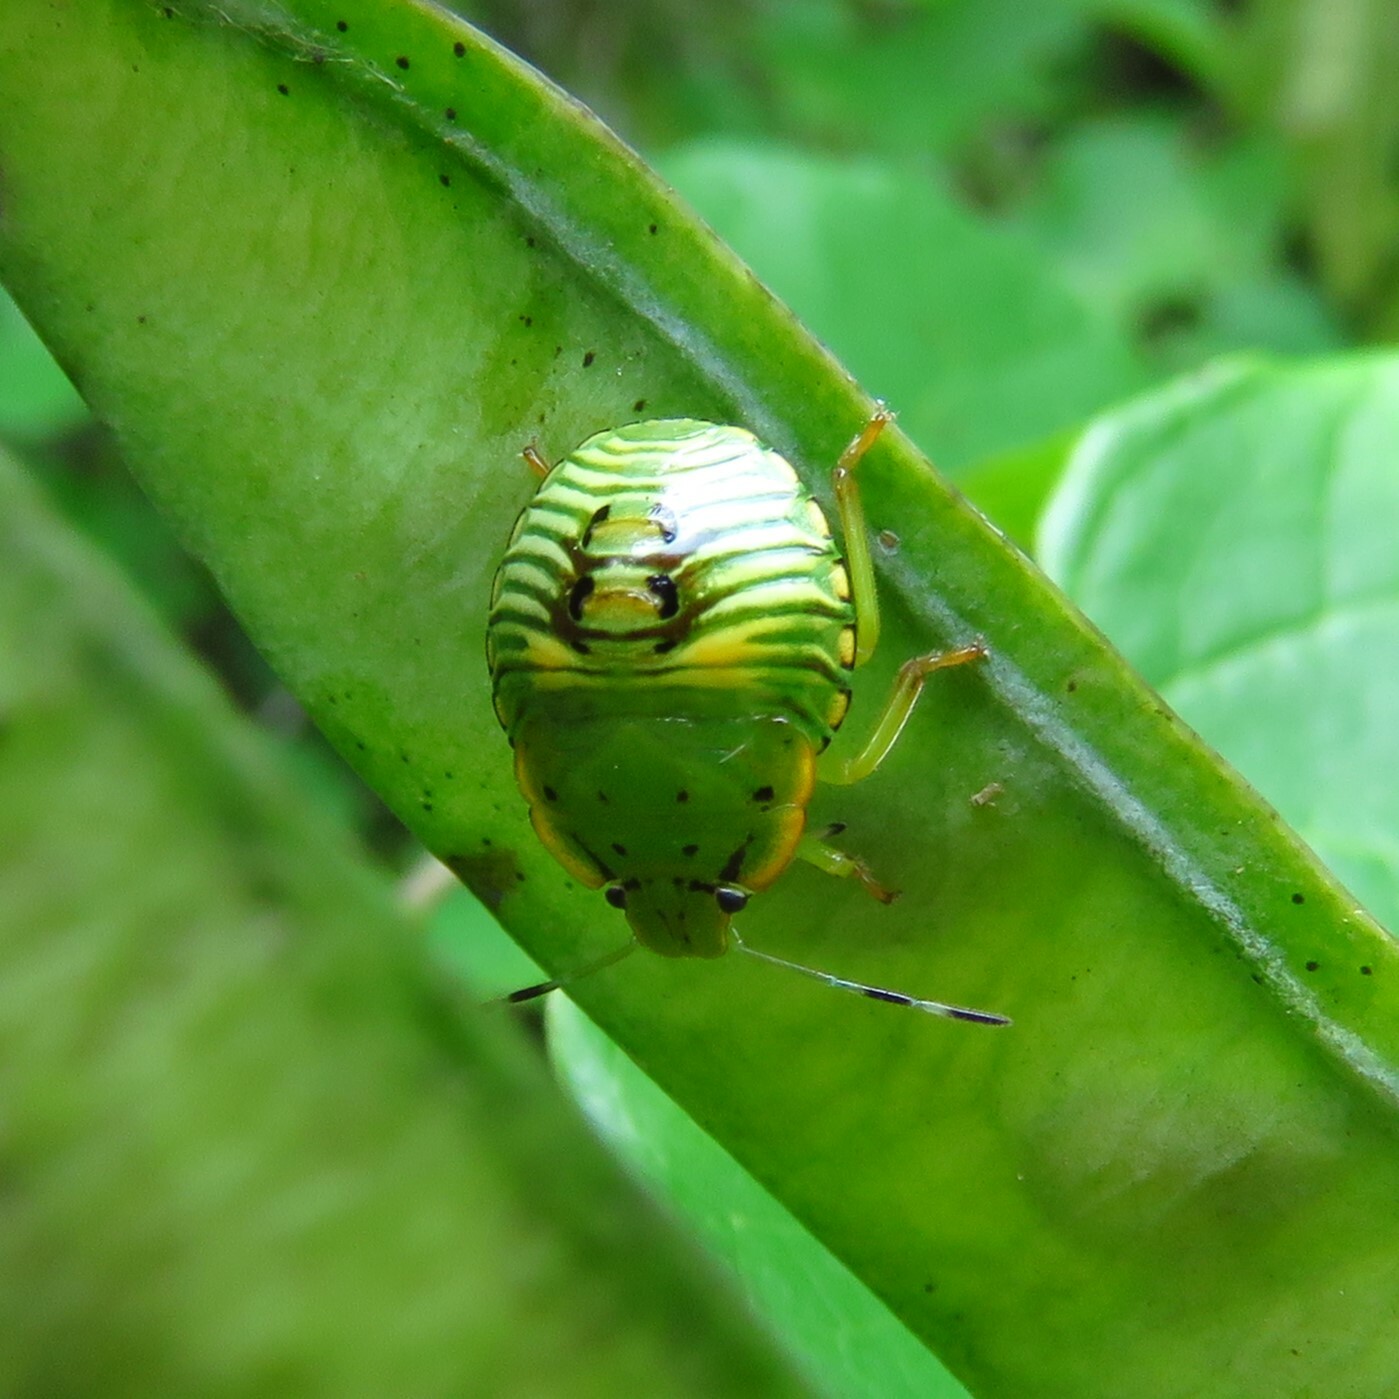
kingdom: Animalia
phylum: Arthropoda
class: Insecta
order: Hemiptera
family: Pentatomidae
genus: Chinavia
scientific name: Chinavia hilaris
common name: Green stink bug
